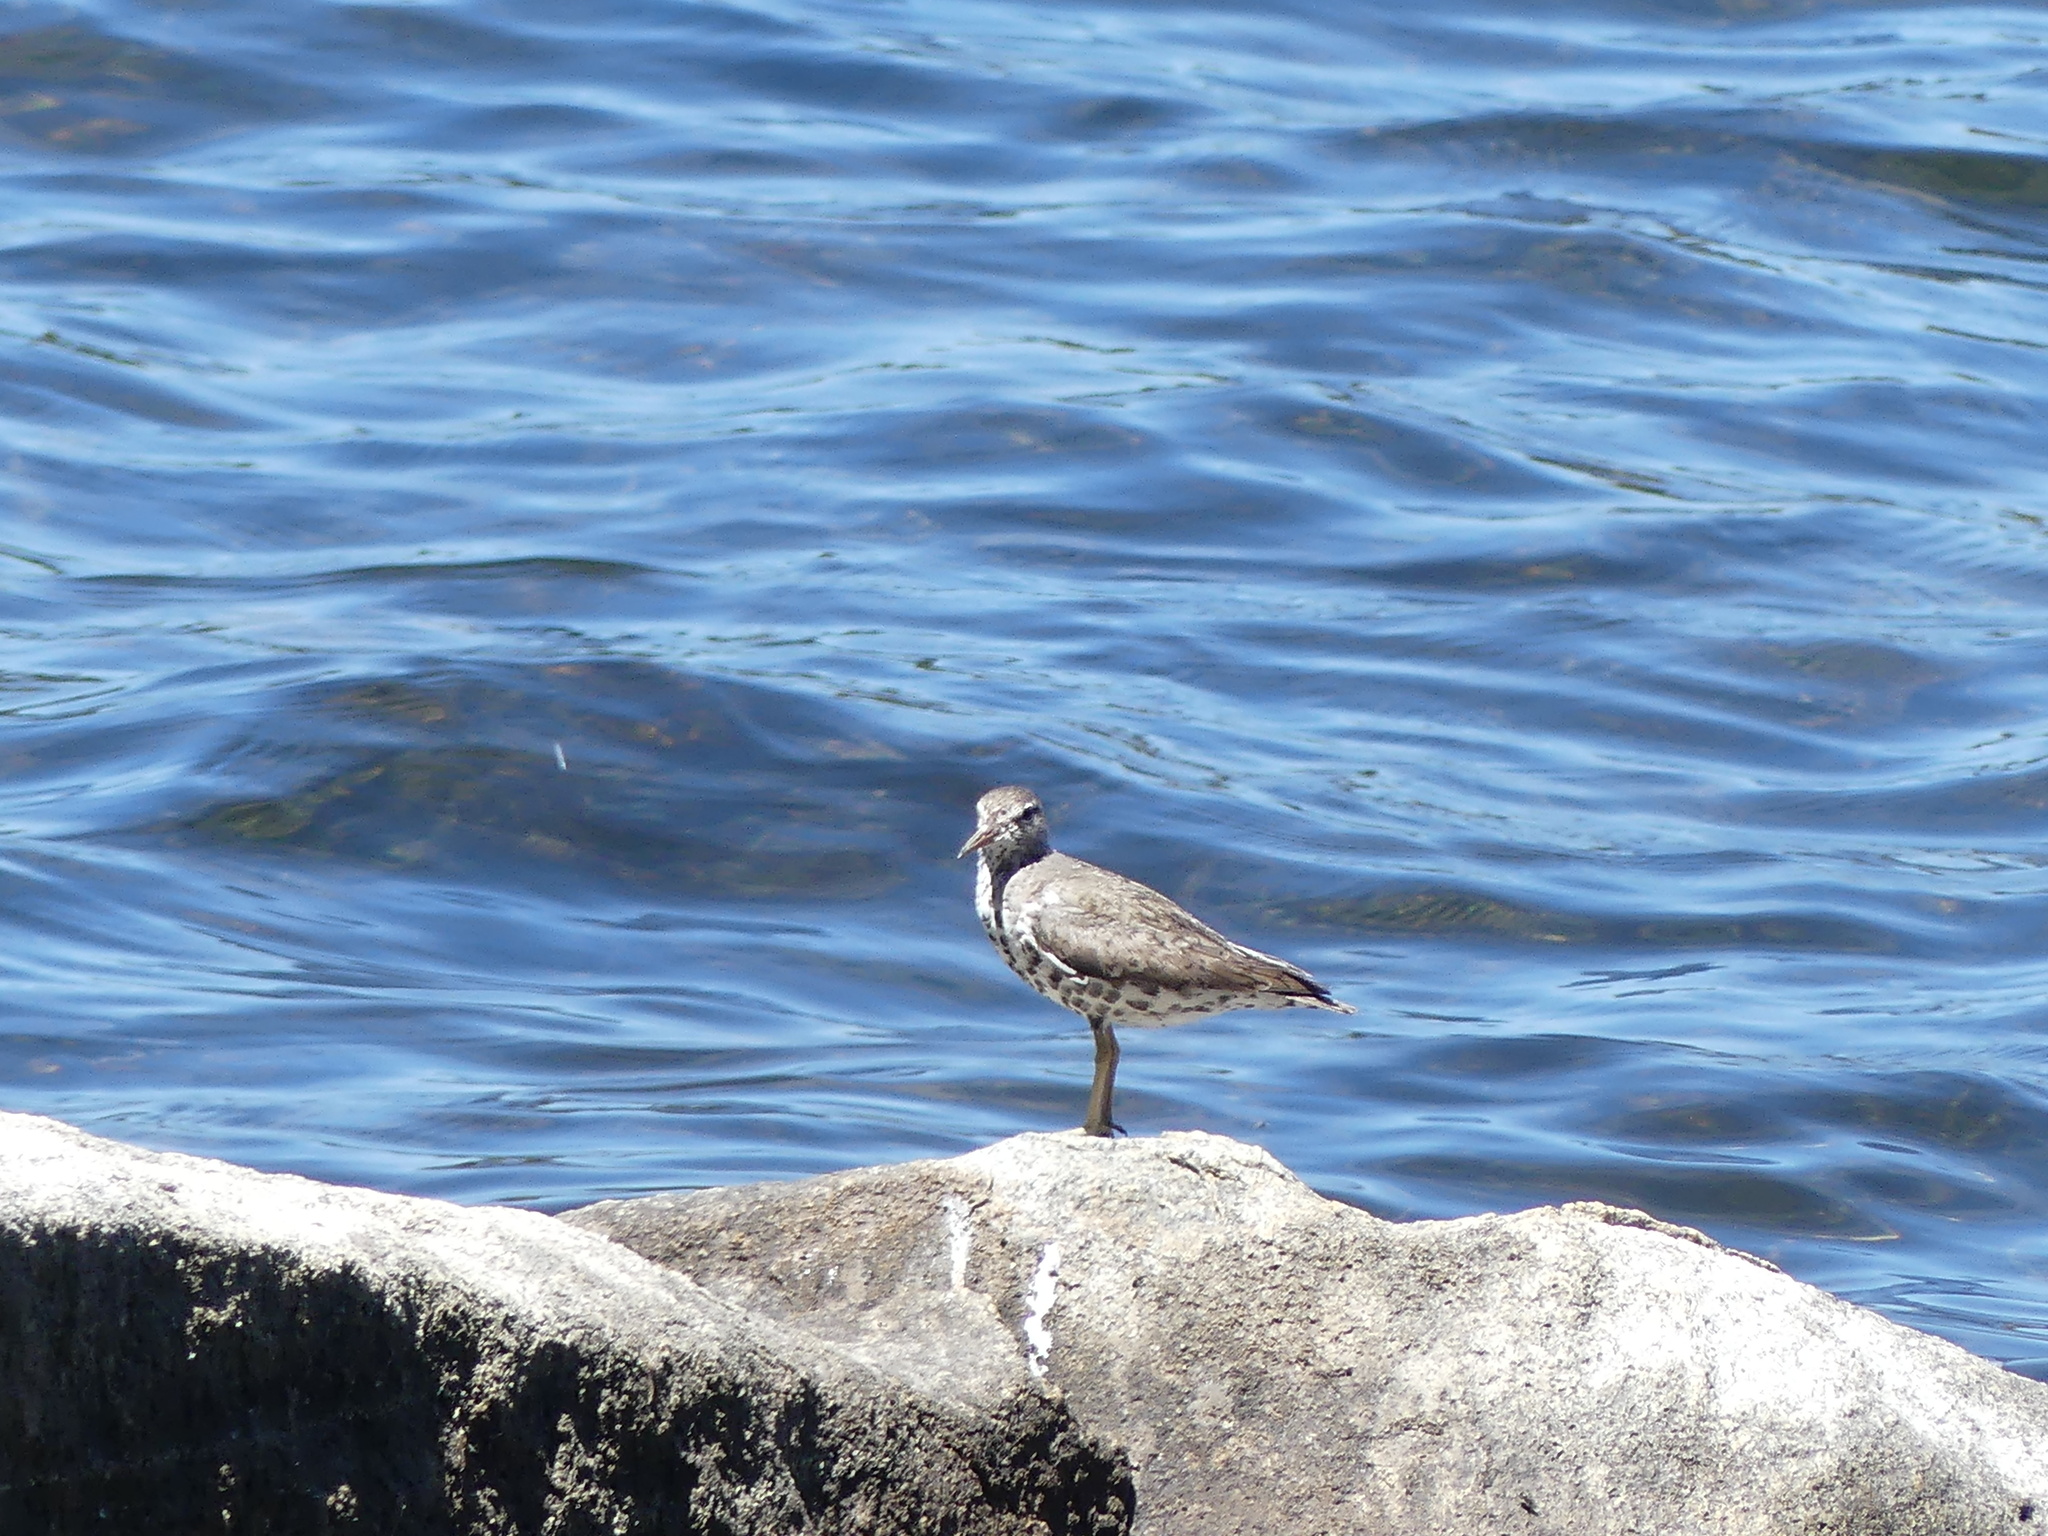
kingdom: Animalia
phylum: Chordata
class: Aves
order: Charadriiformes
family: Scolopacidae
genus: Actitis
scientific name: Actitis macularius
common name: Spotted sandpiper
